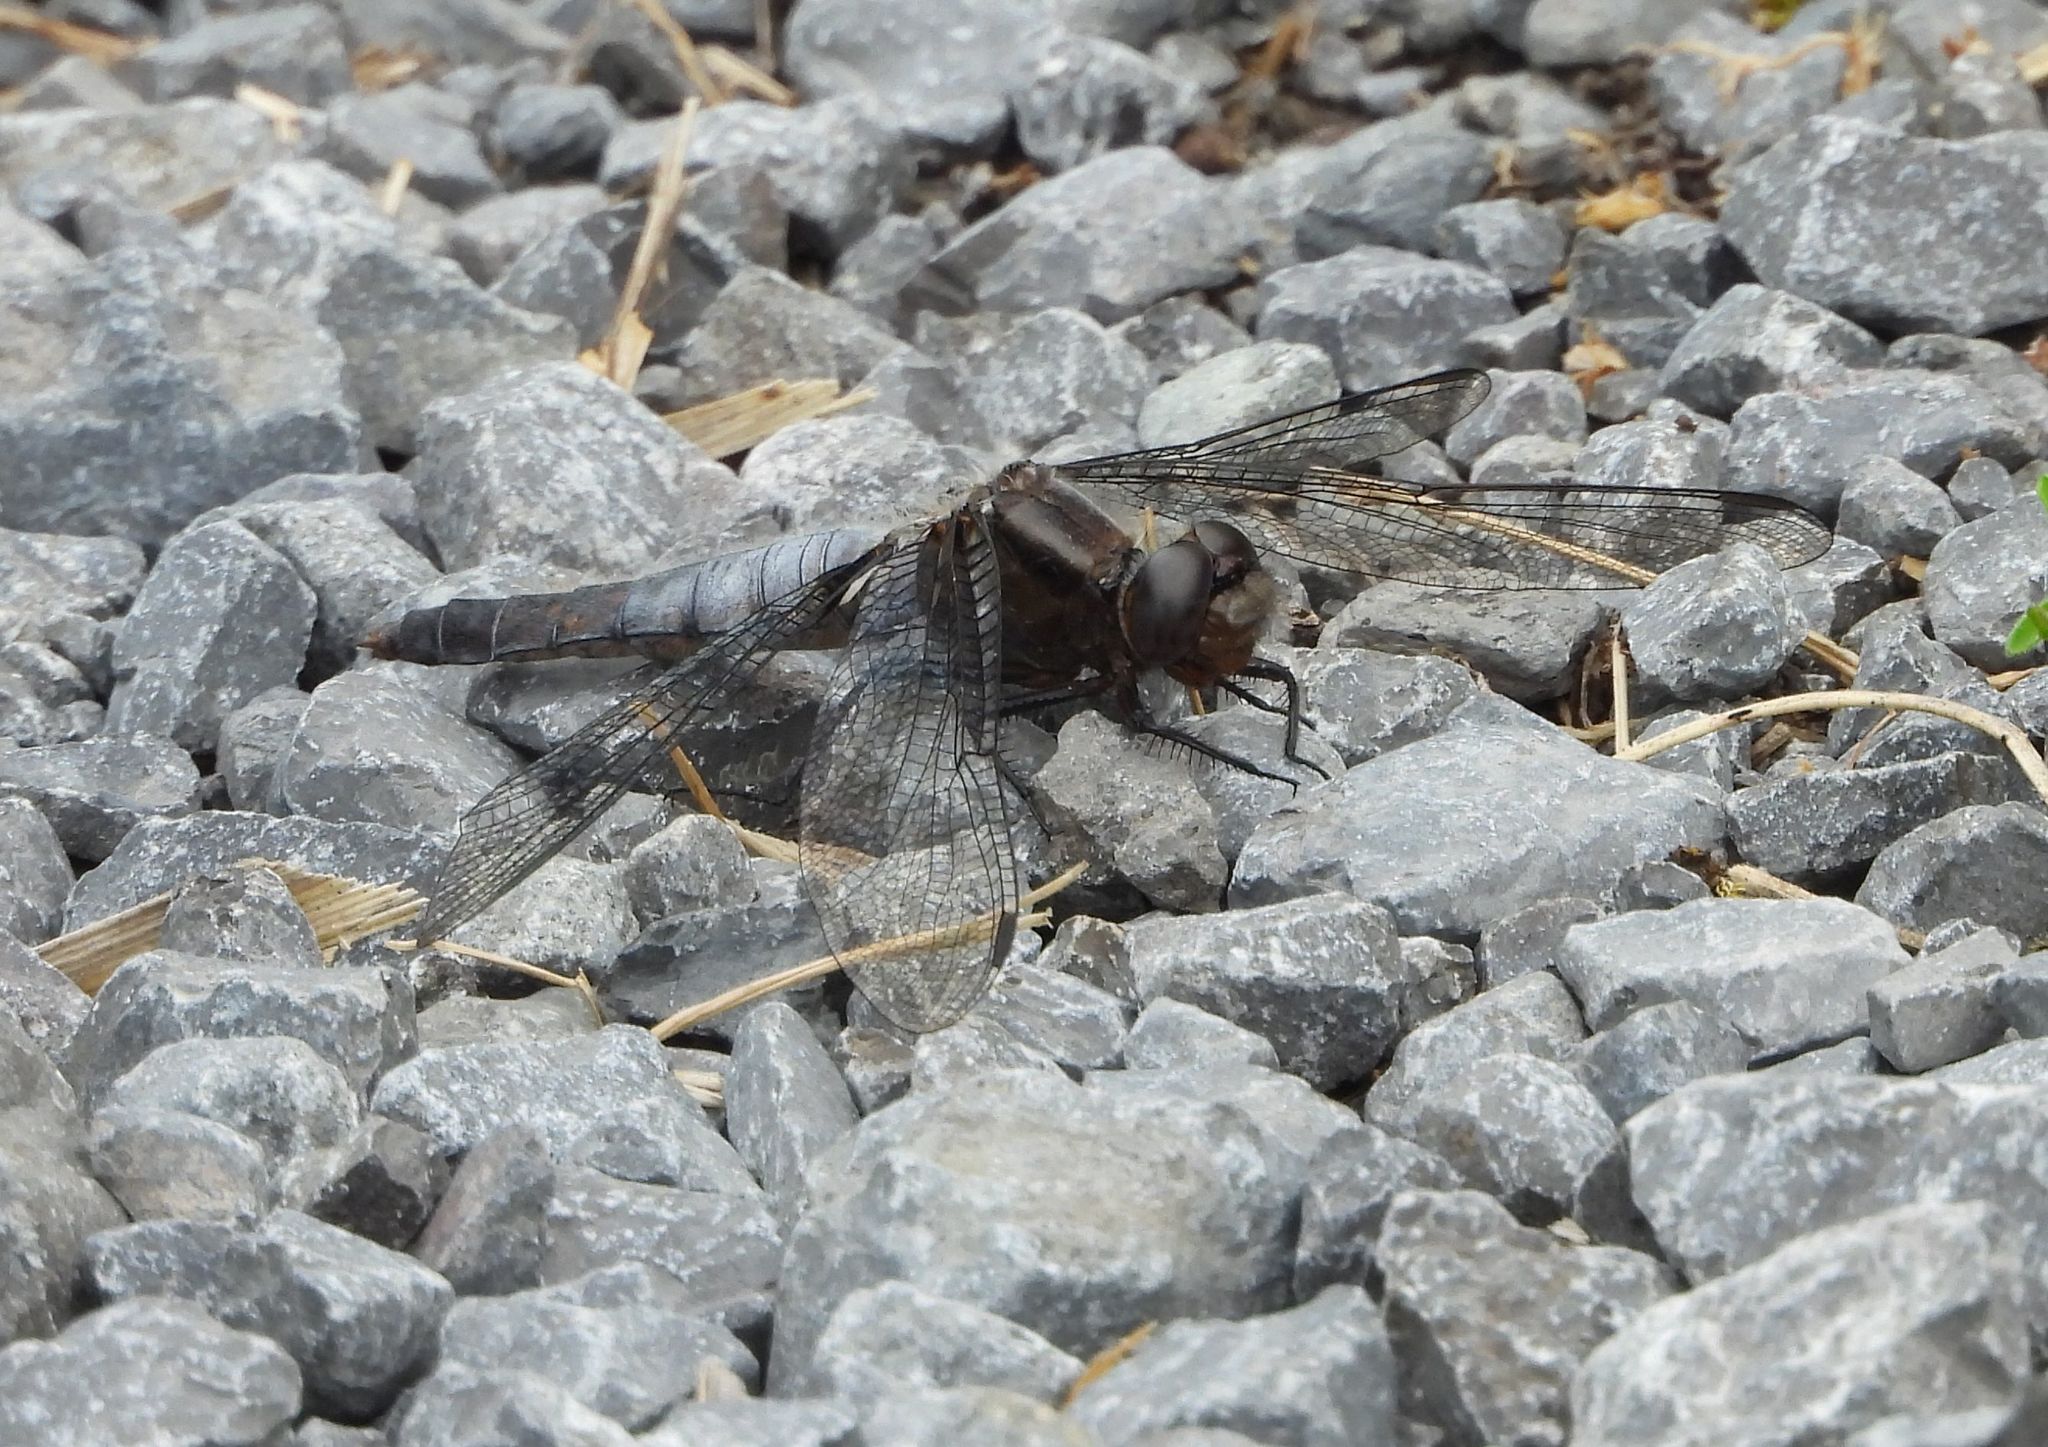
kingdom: Animalia
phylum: Arthropoda
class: Insecta
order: Odonata
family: Libellulidae
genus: Ladona
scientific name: Ladona julia
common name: Chalk-fronted corporal
